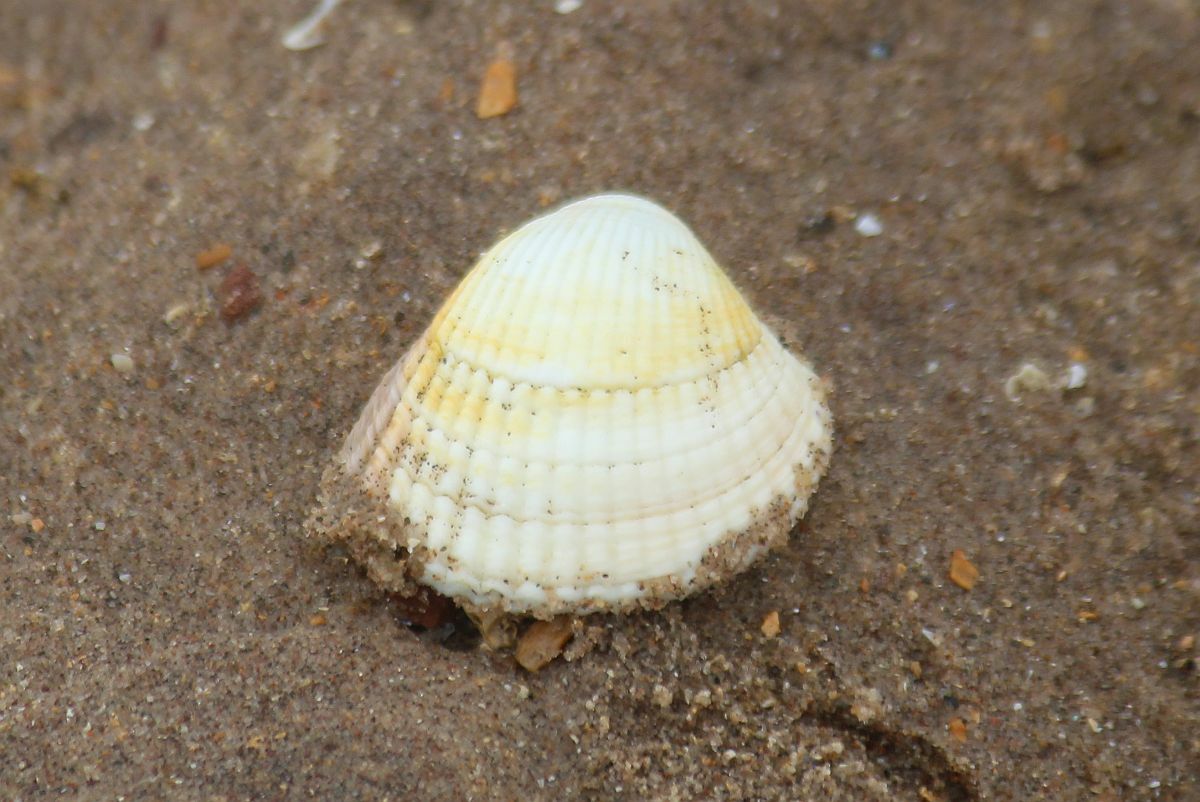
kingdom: Animalia
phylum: Mollusca
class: Bivalvia
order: Cardiida
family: Cardiidae
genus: Cerastoderma
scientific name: Cerastoderma edule
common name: Common cockle
